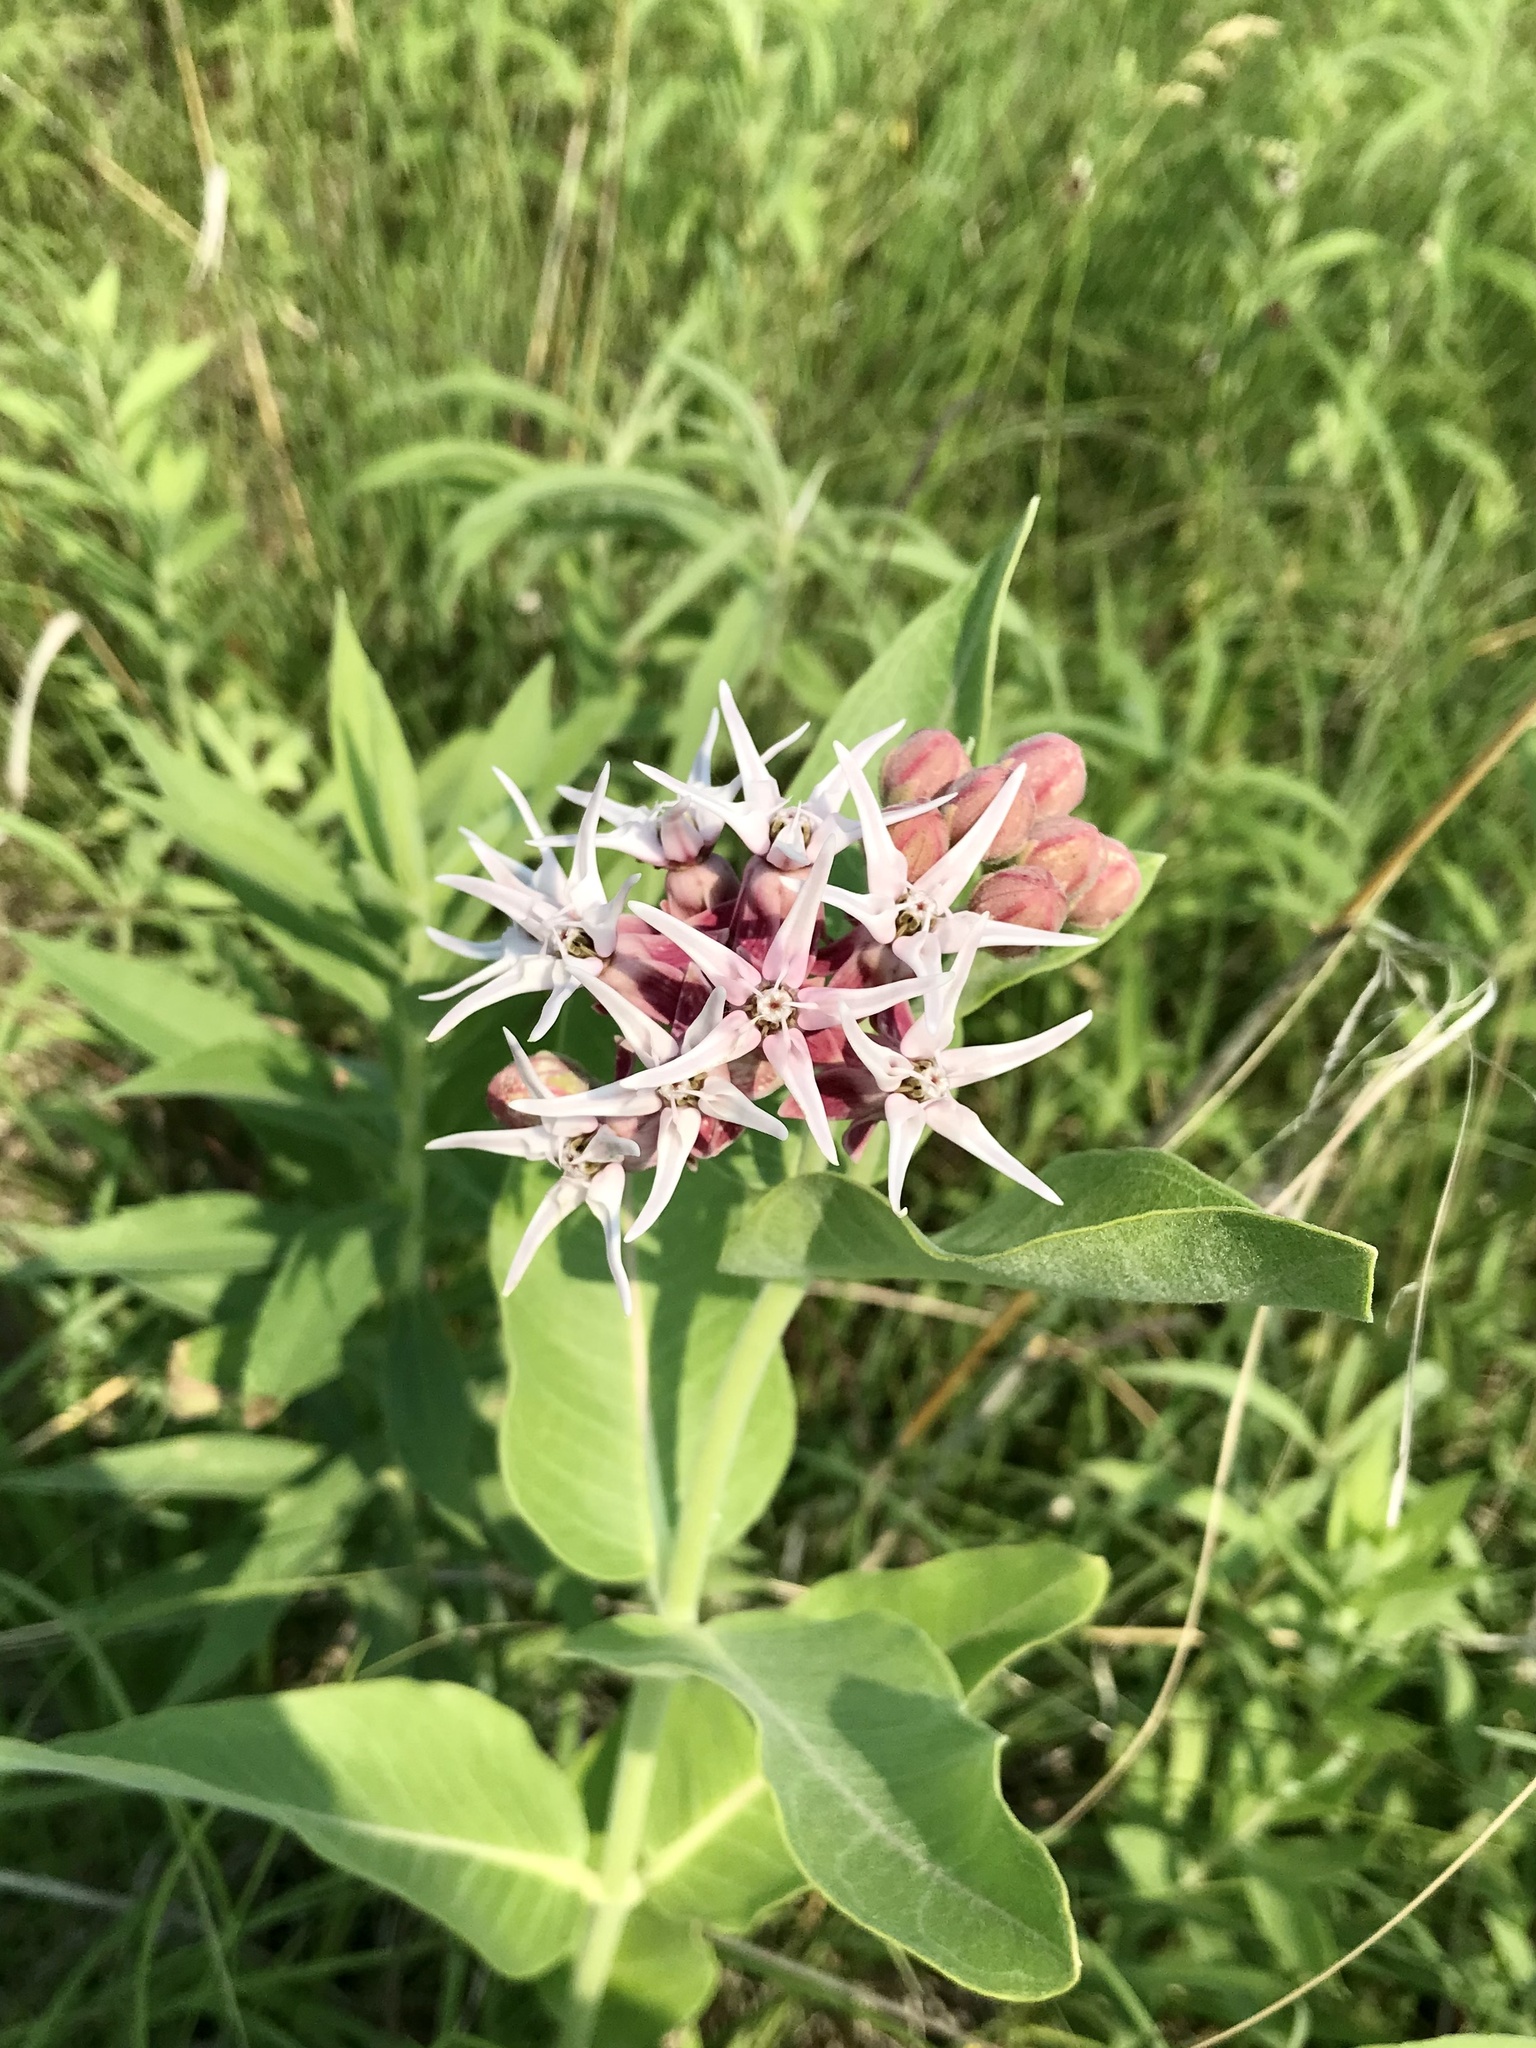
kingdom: Plantae
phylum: Tracheophyta
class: Magnoliopsida
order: Gentianales
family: Apocynaceae
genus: Asclepias
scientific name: Asclepias speciosa
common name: Showy milkweed
